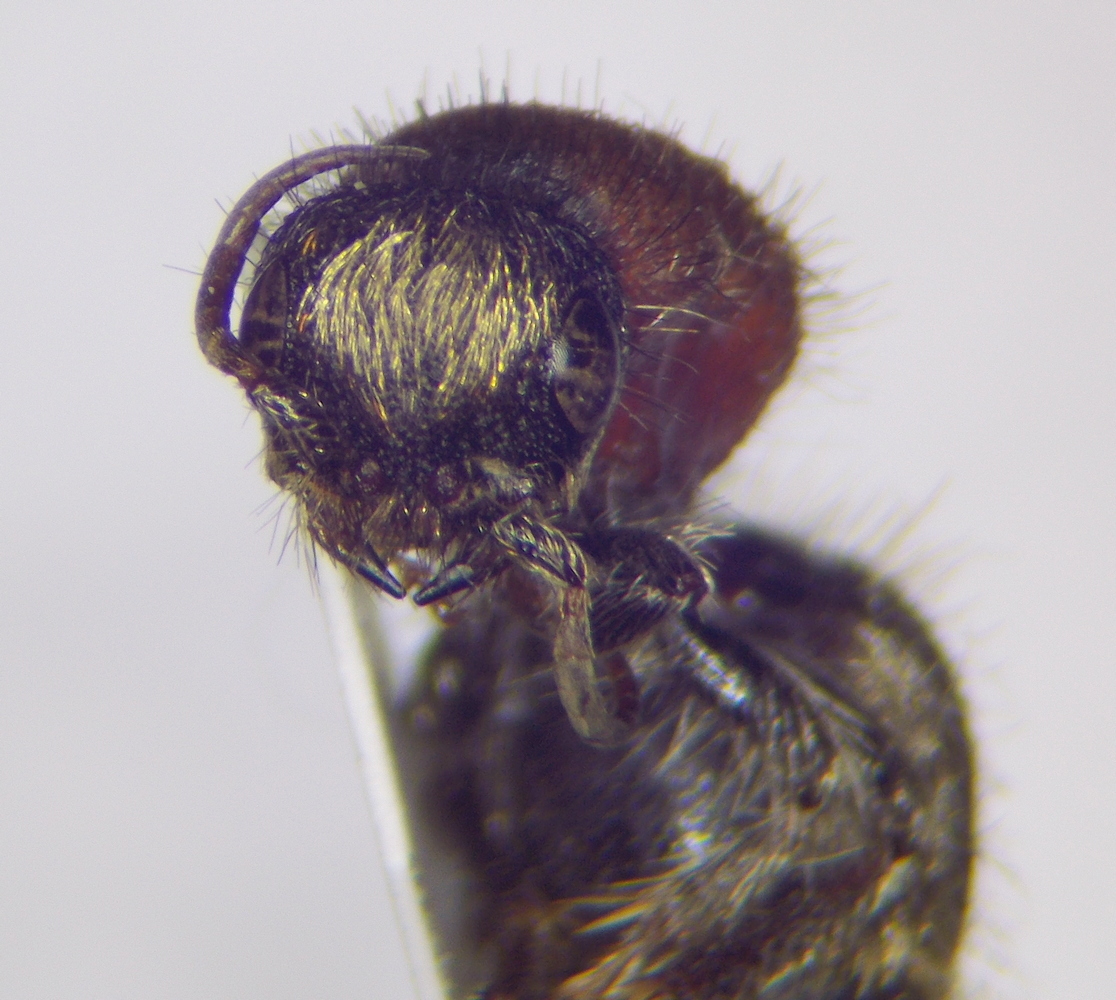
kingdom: Animalia
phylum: Arthropoda
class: Insecta
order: Hymenoptera
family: Mutillidae
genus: Nemka
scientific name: Nemka viduata
